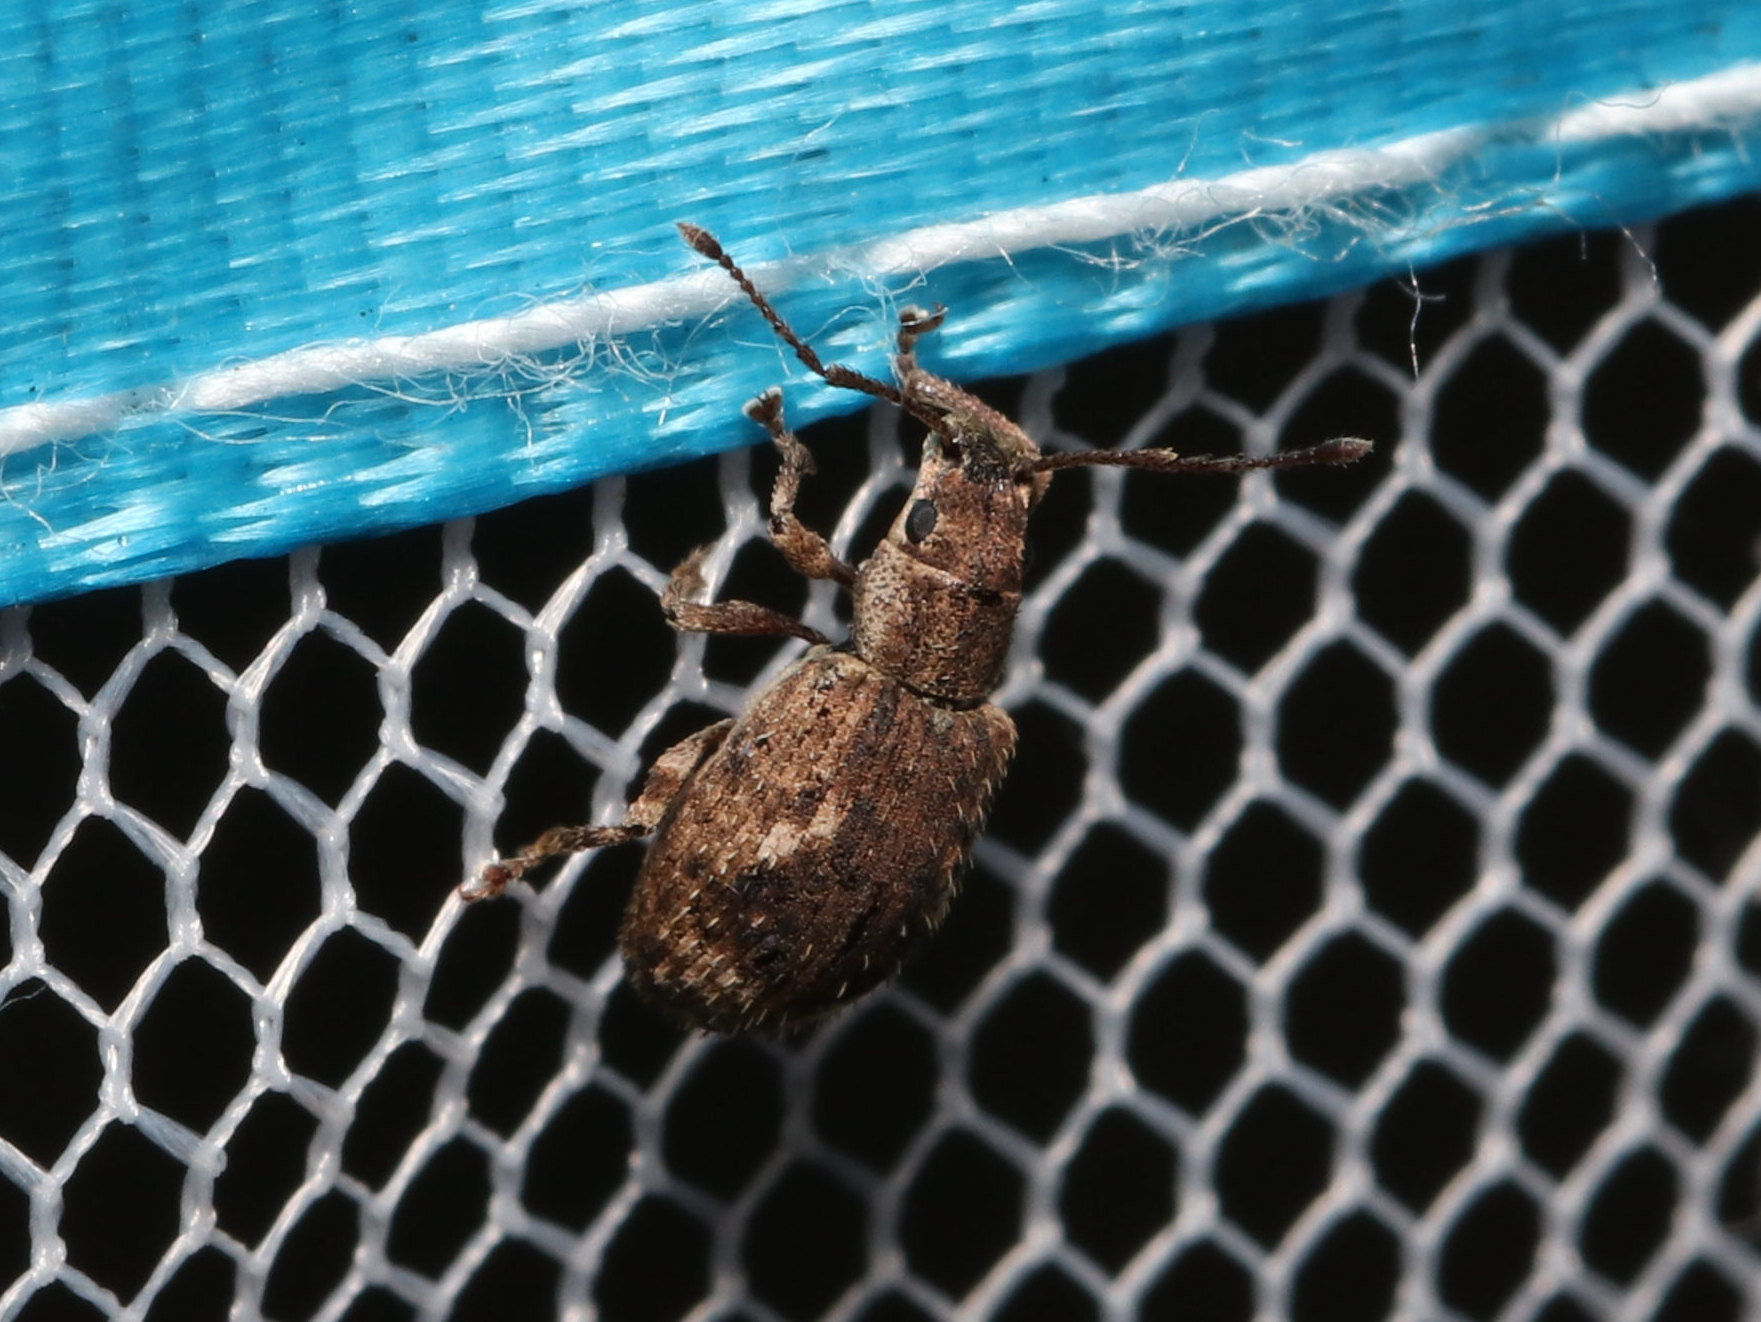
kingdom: Animalia
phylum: Arthropoda
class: Insecta
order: Coleoptera
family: Curculionidae
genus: Pseudoedophrys
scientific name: Pseudoedophrys hilleri
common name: Weevil
